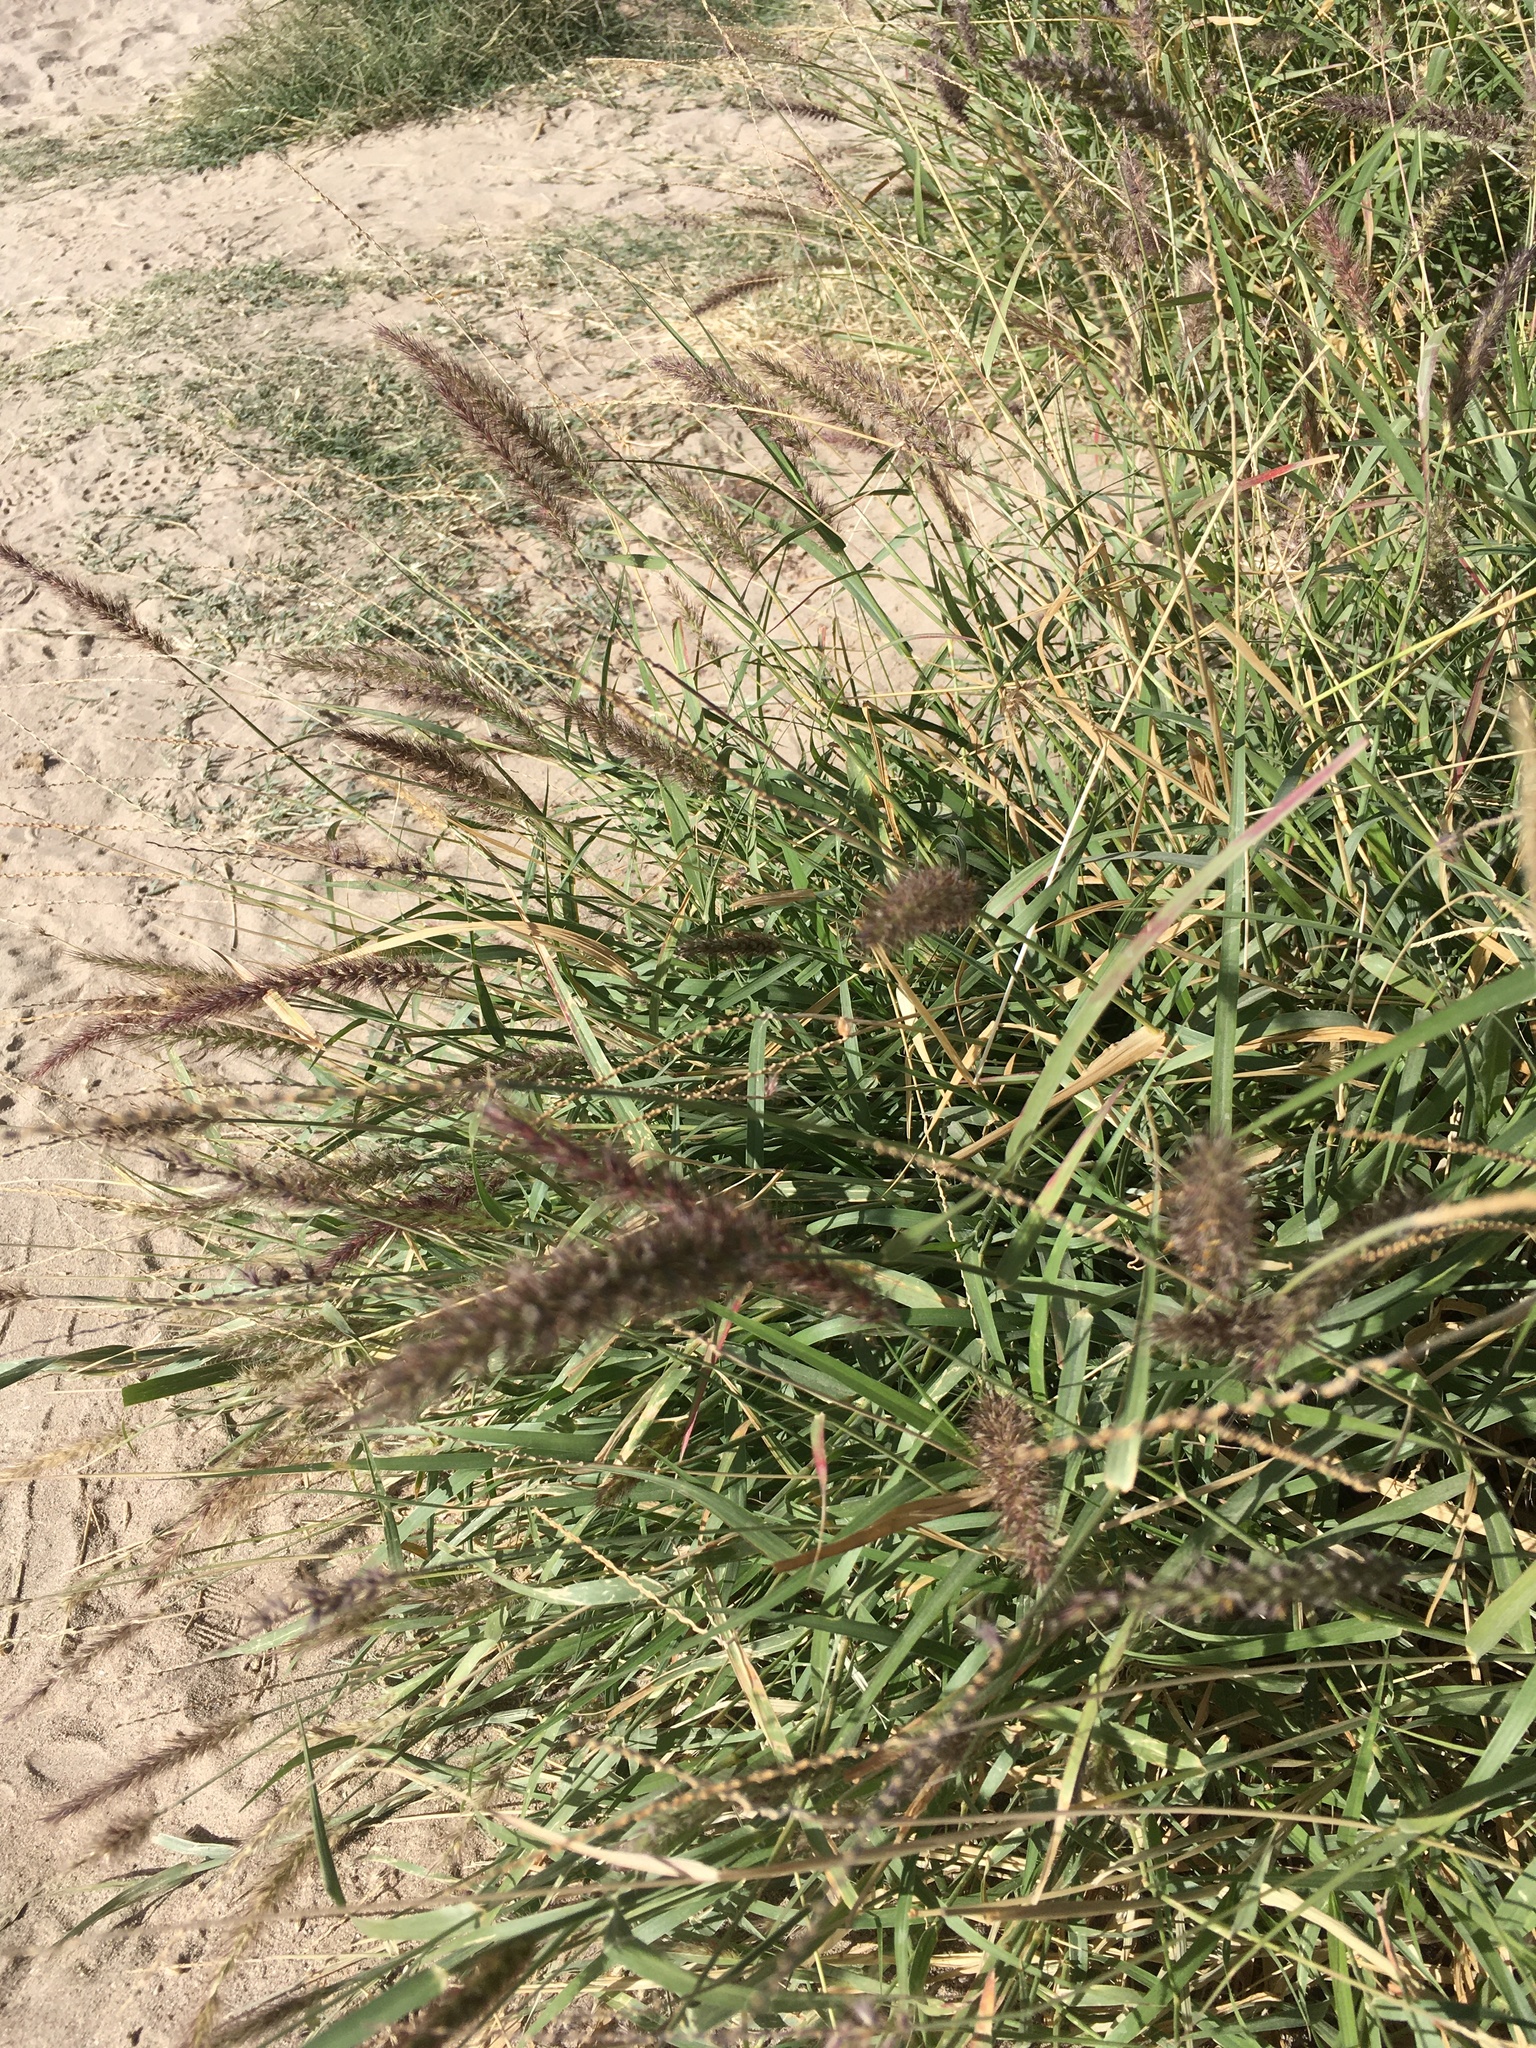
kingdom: Plantae
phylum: Tracheophyta
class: Liliopsida
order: Poales
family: Poaceae
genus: Cenchrus
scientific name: Cenchrus ciliaris
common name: Buffelgrass
